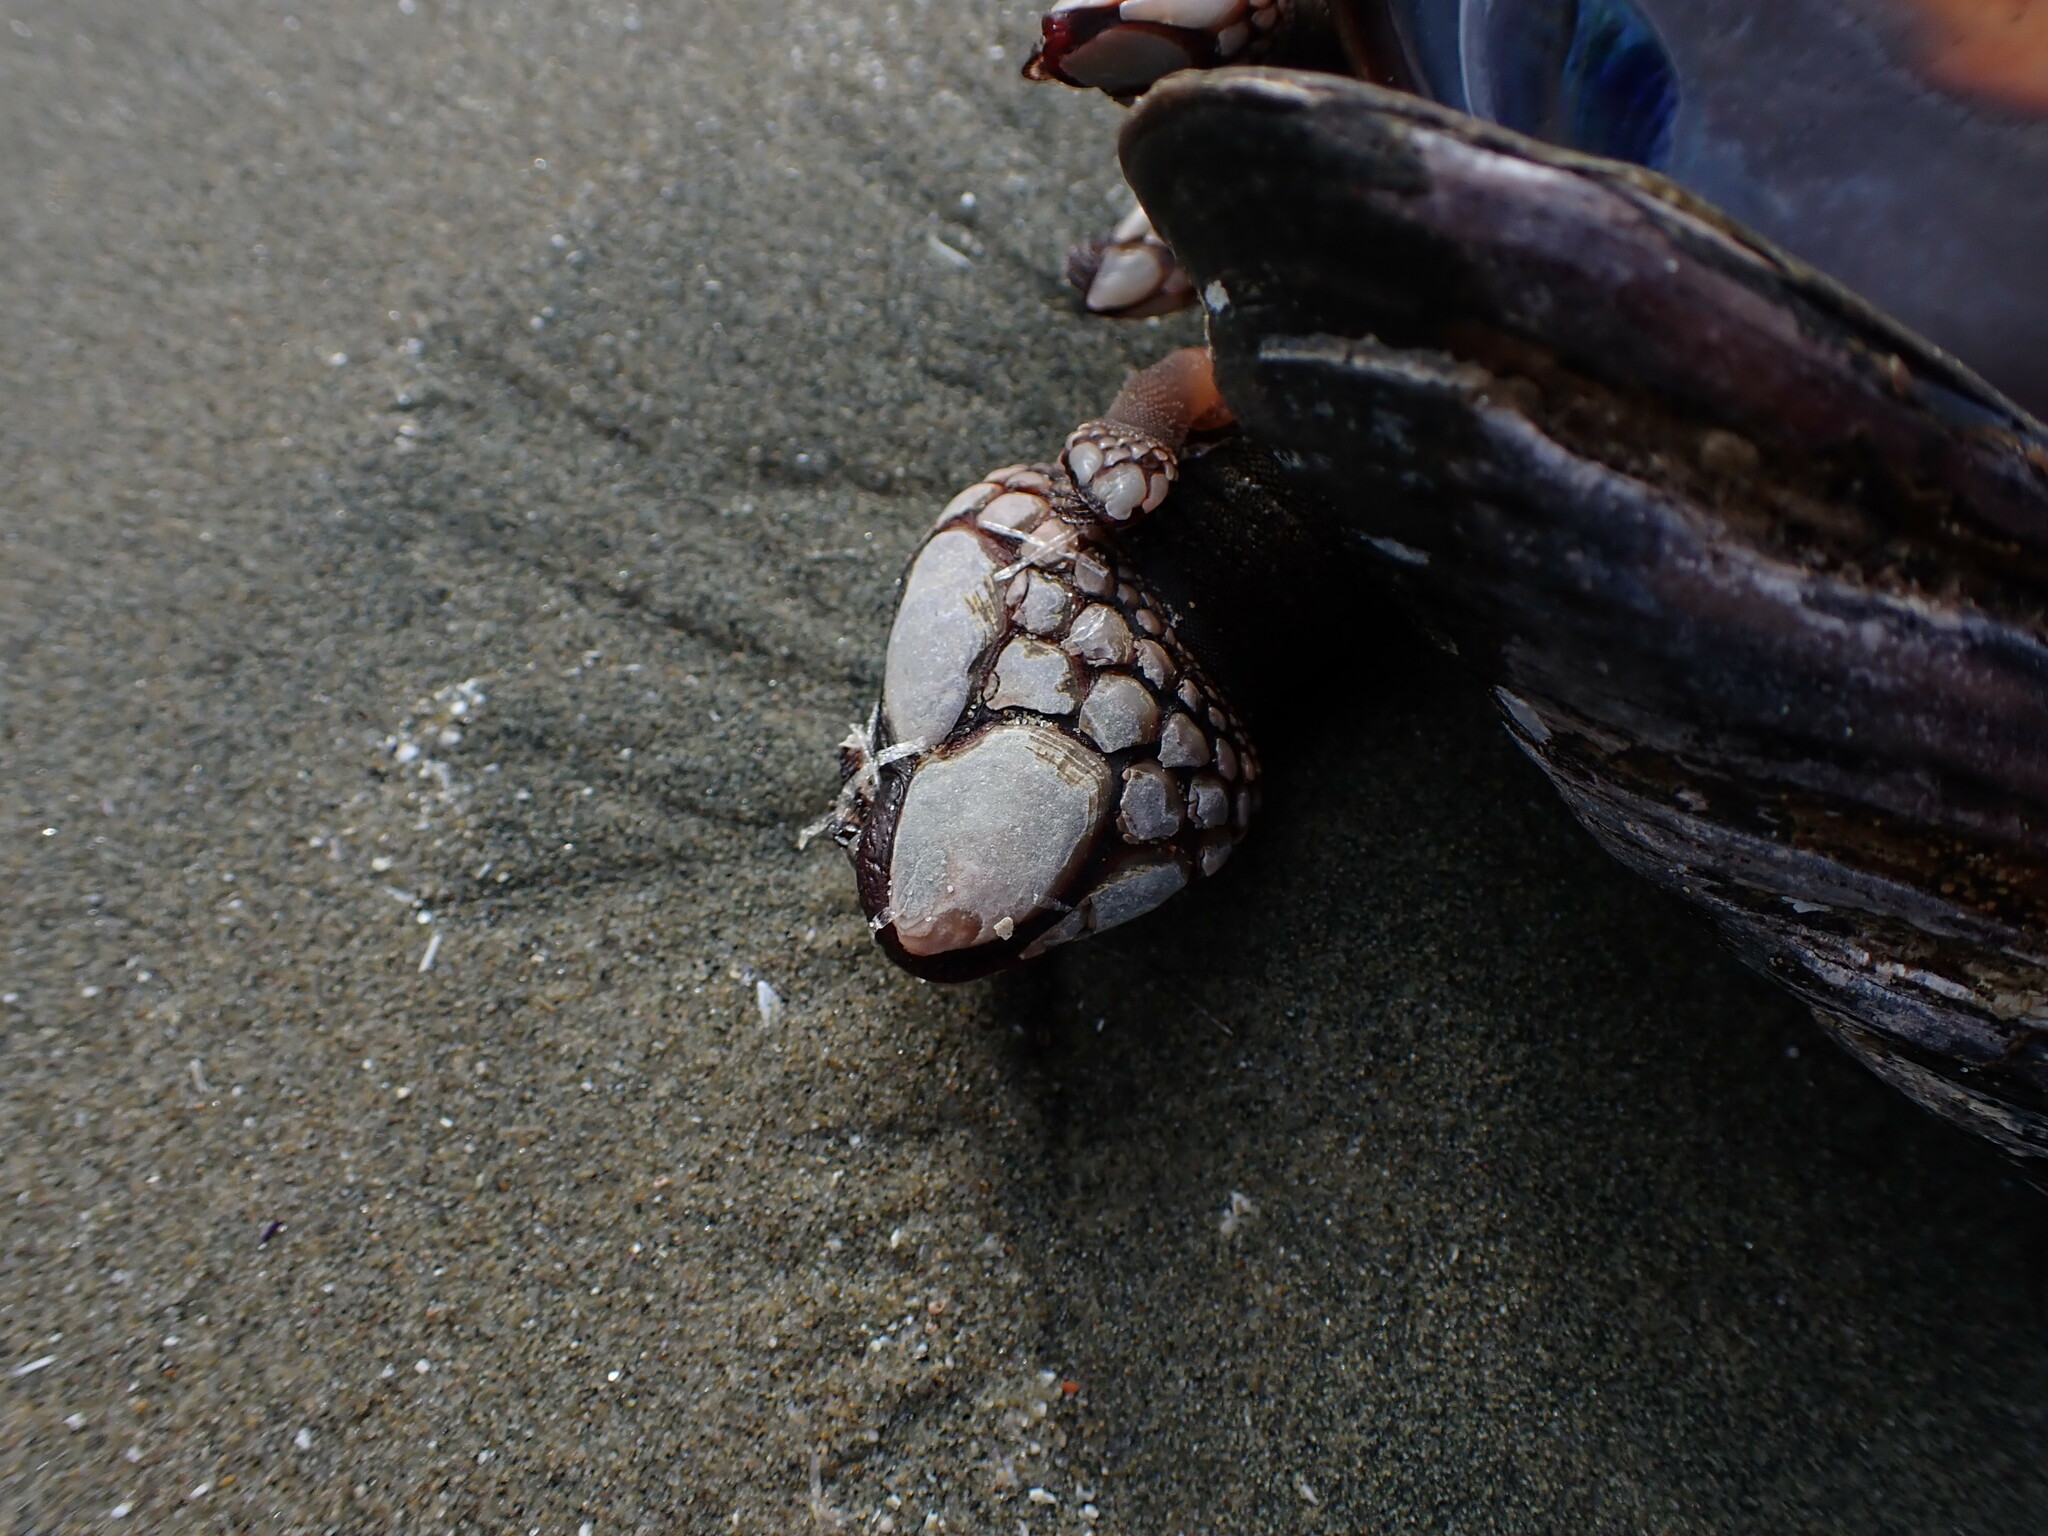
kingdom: Animalia
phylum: Arthropoda
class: Maxillopoda
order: Pedunculata
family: Pollicipedidae
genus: Pollicipes
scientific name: Pollicipes polymerus
